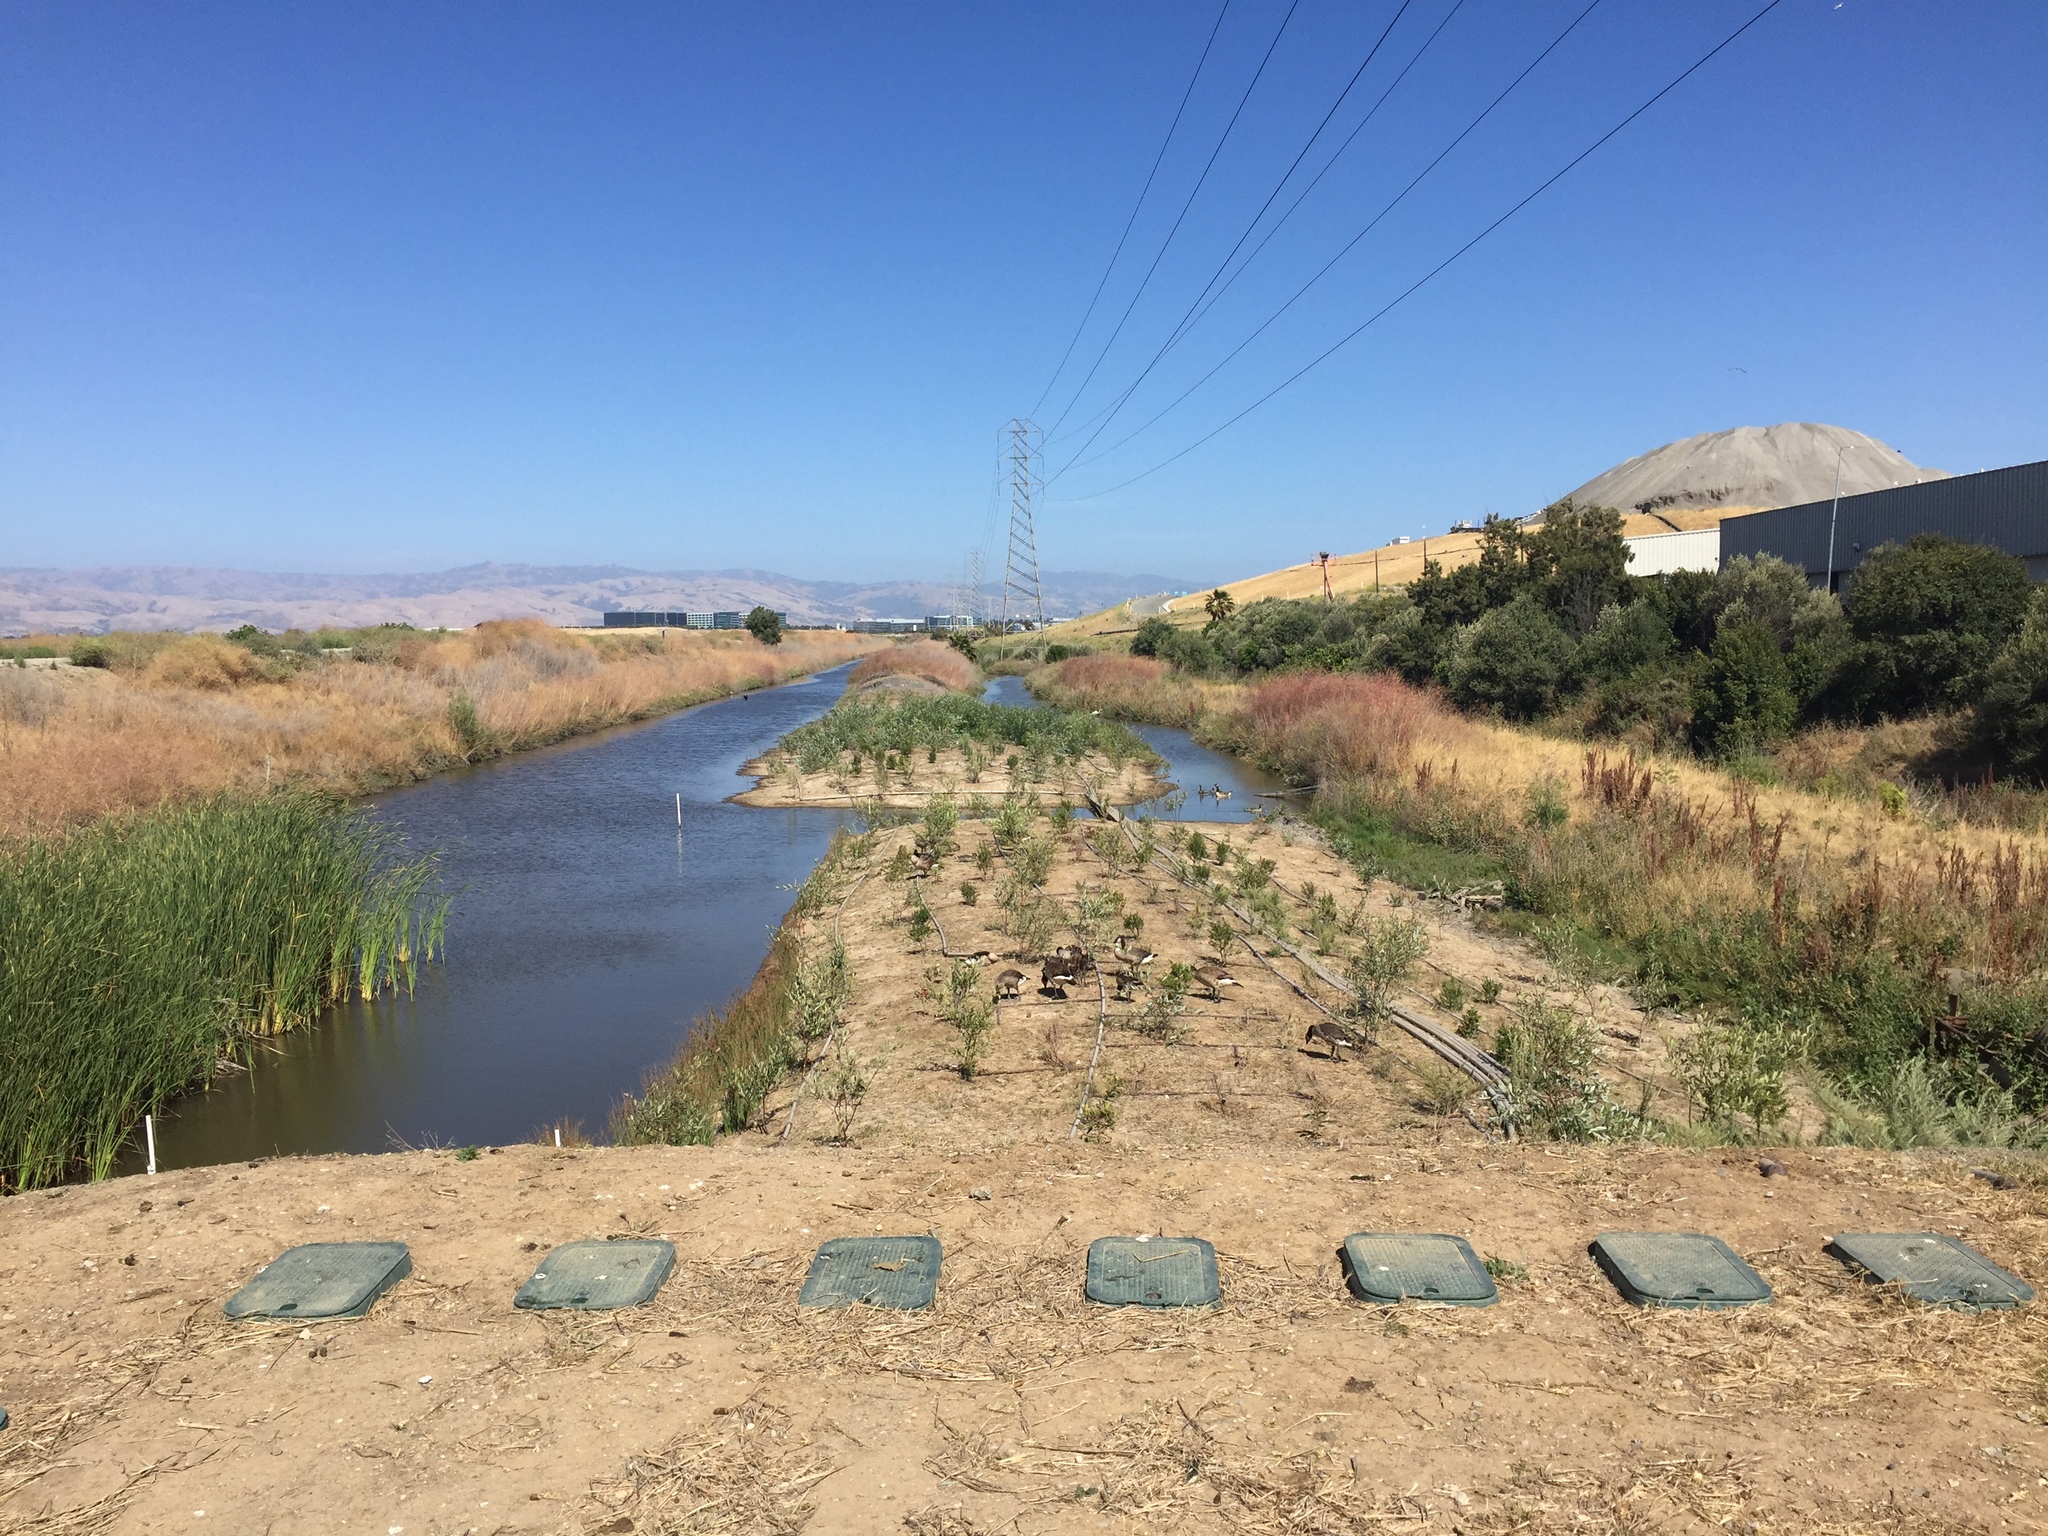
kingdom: Animalia
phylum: Chordata
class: Aves
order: Anseriformes
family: Anatidae
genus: Branta
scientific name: Branta canadensis
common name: Canada goose
